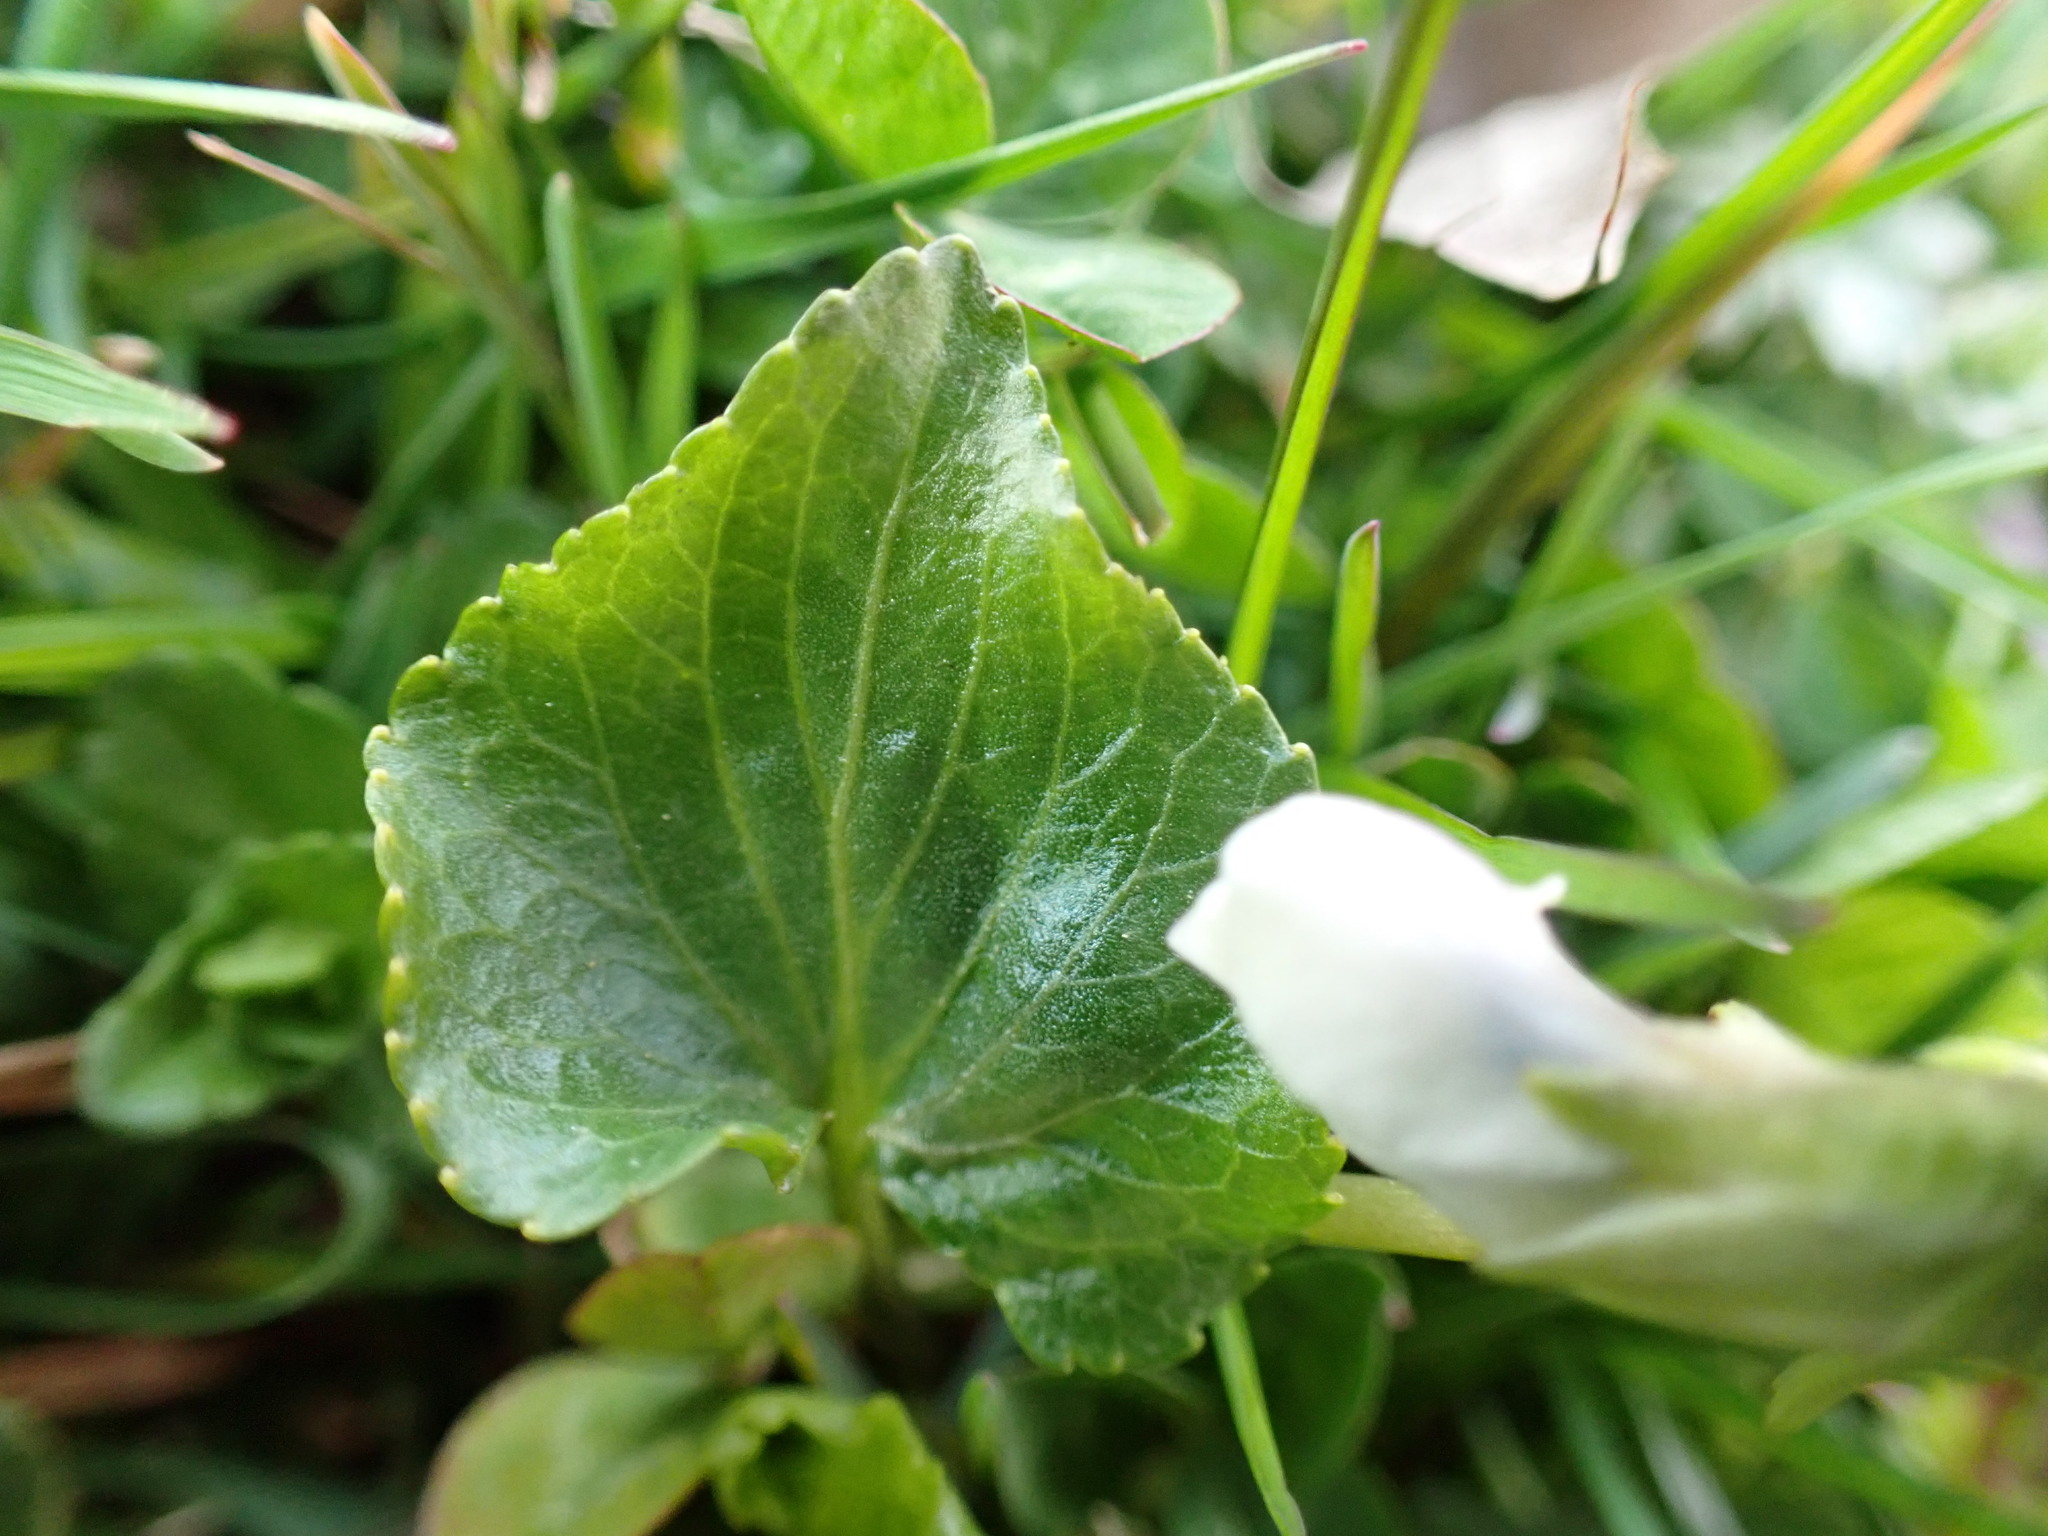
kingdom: Plantae
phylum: Tracheophyta
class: Magnoliopsida
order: Malpighiales
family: Violaceae
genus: Viola
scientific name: Viola sororia
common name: Dooryard violet
